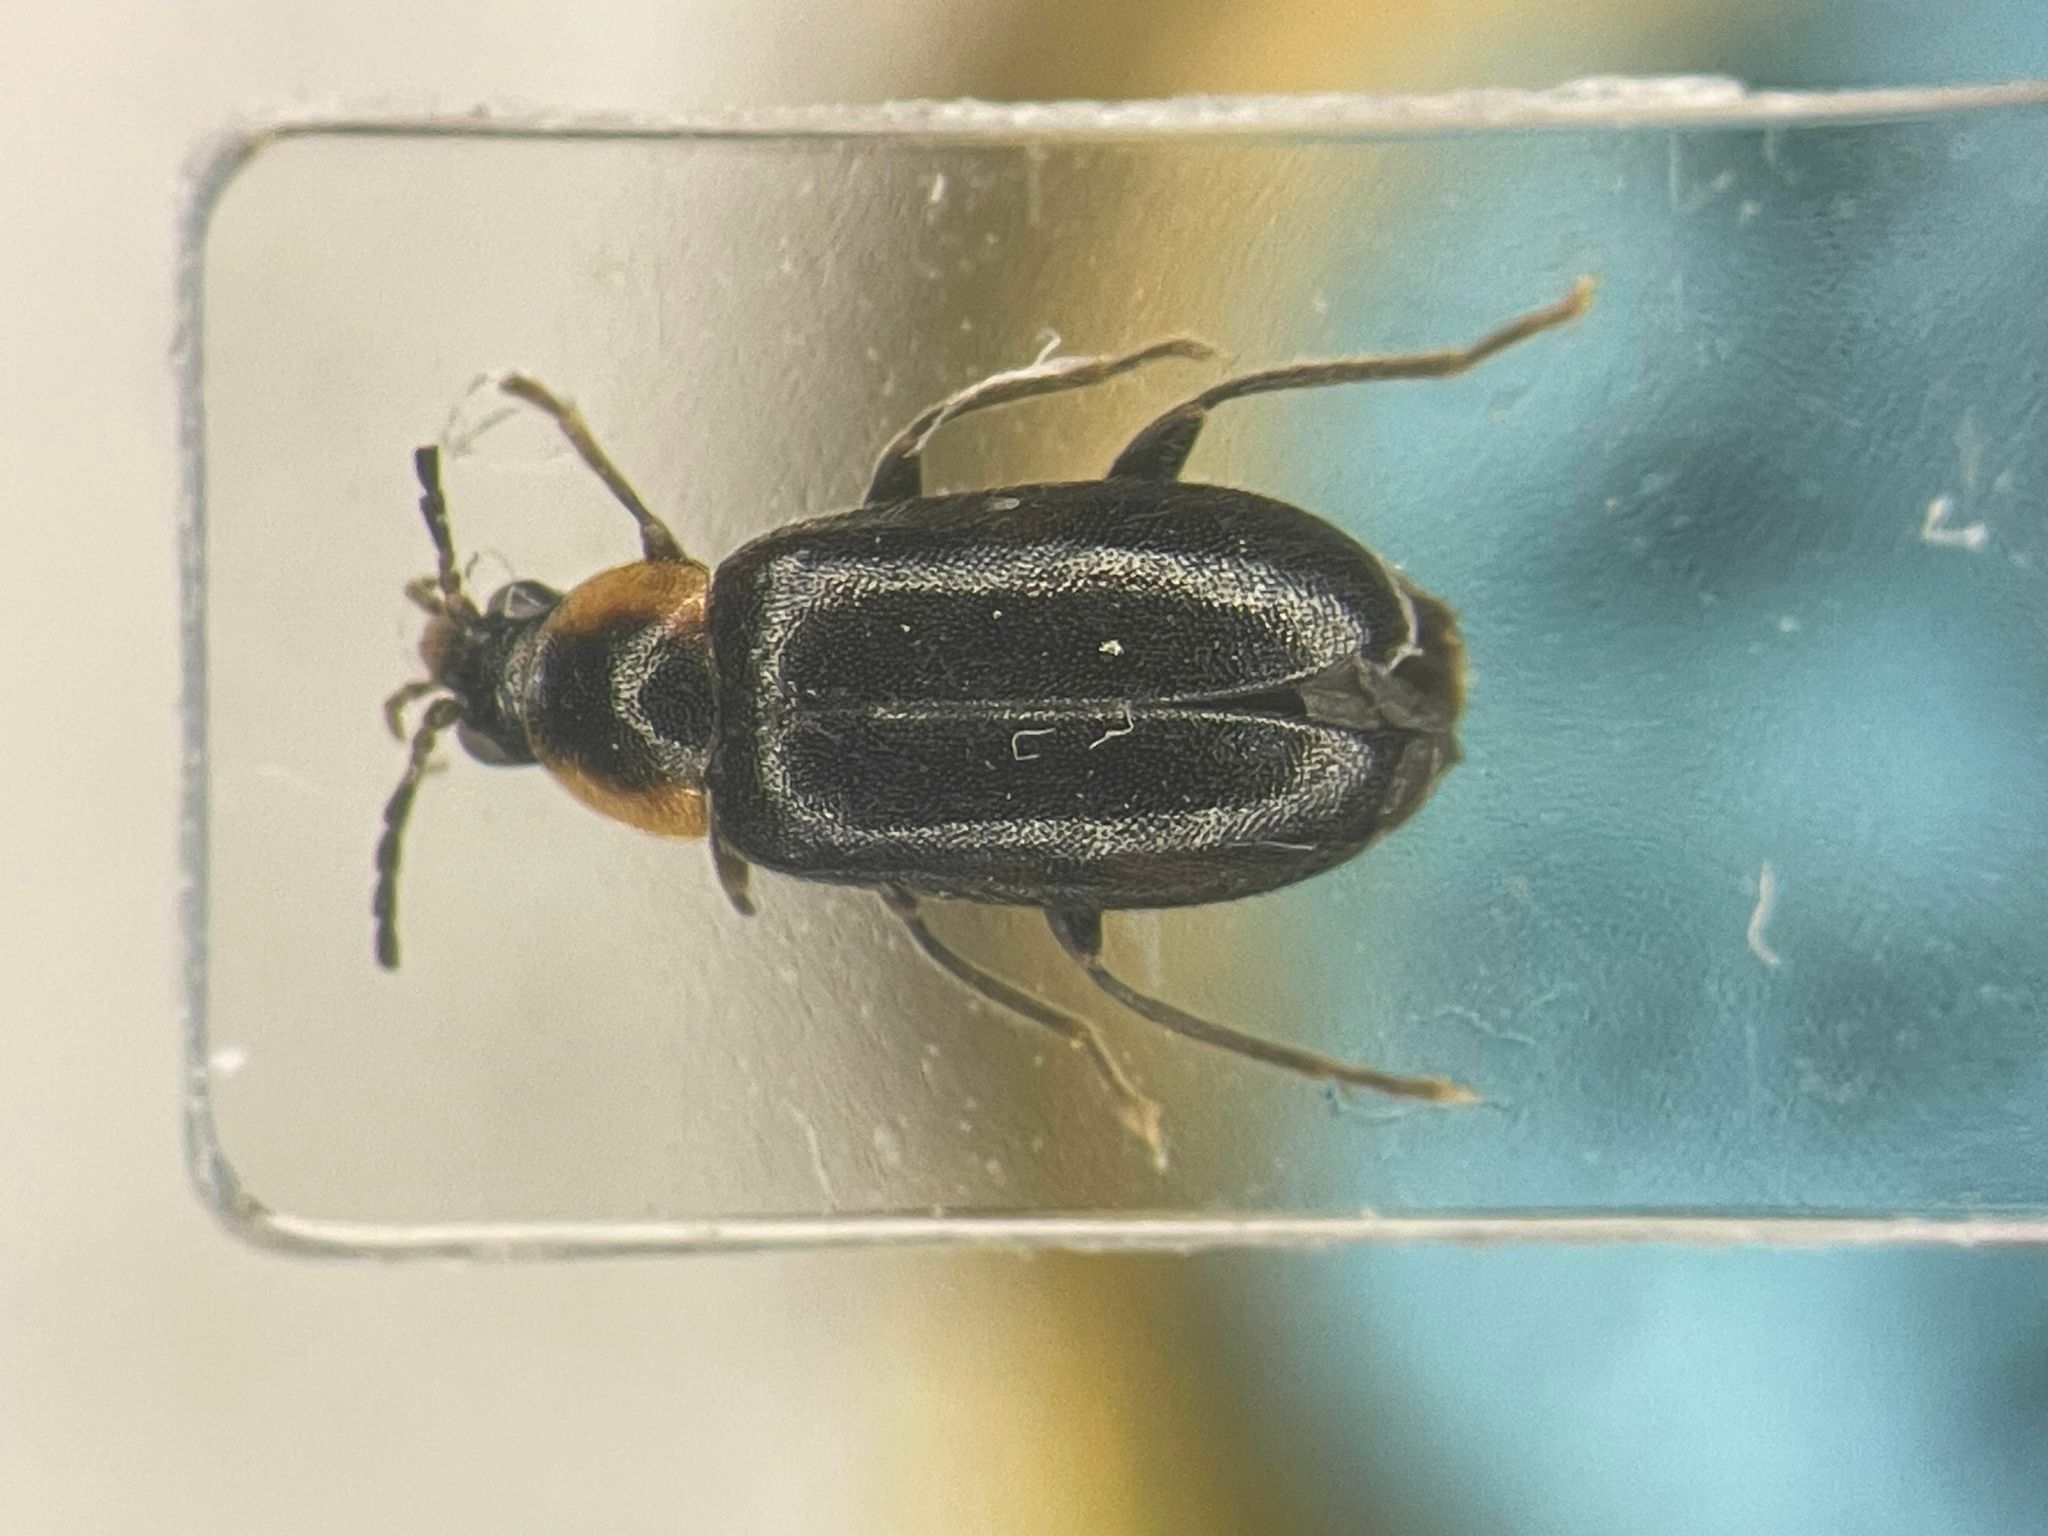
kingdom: Animalia
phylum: Arthropoda
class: Insecta
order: Coleoptera
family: Scirtidae
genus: Elodes
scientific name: Elodes maculicollis
